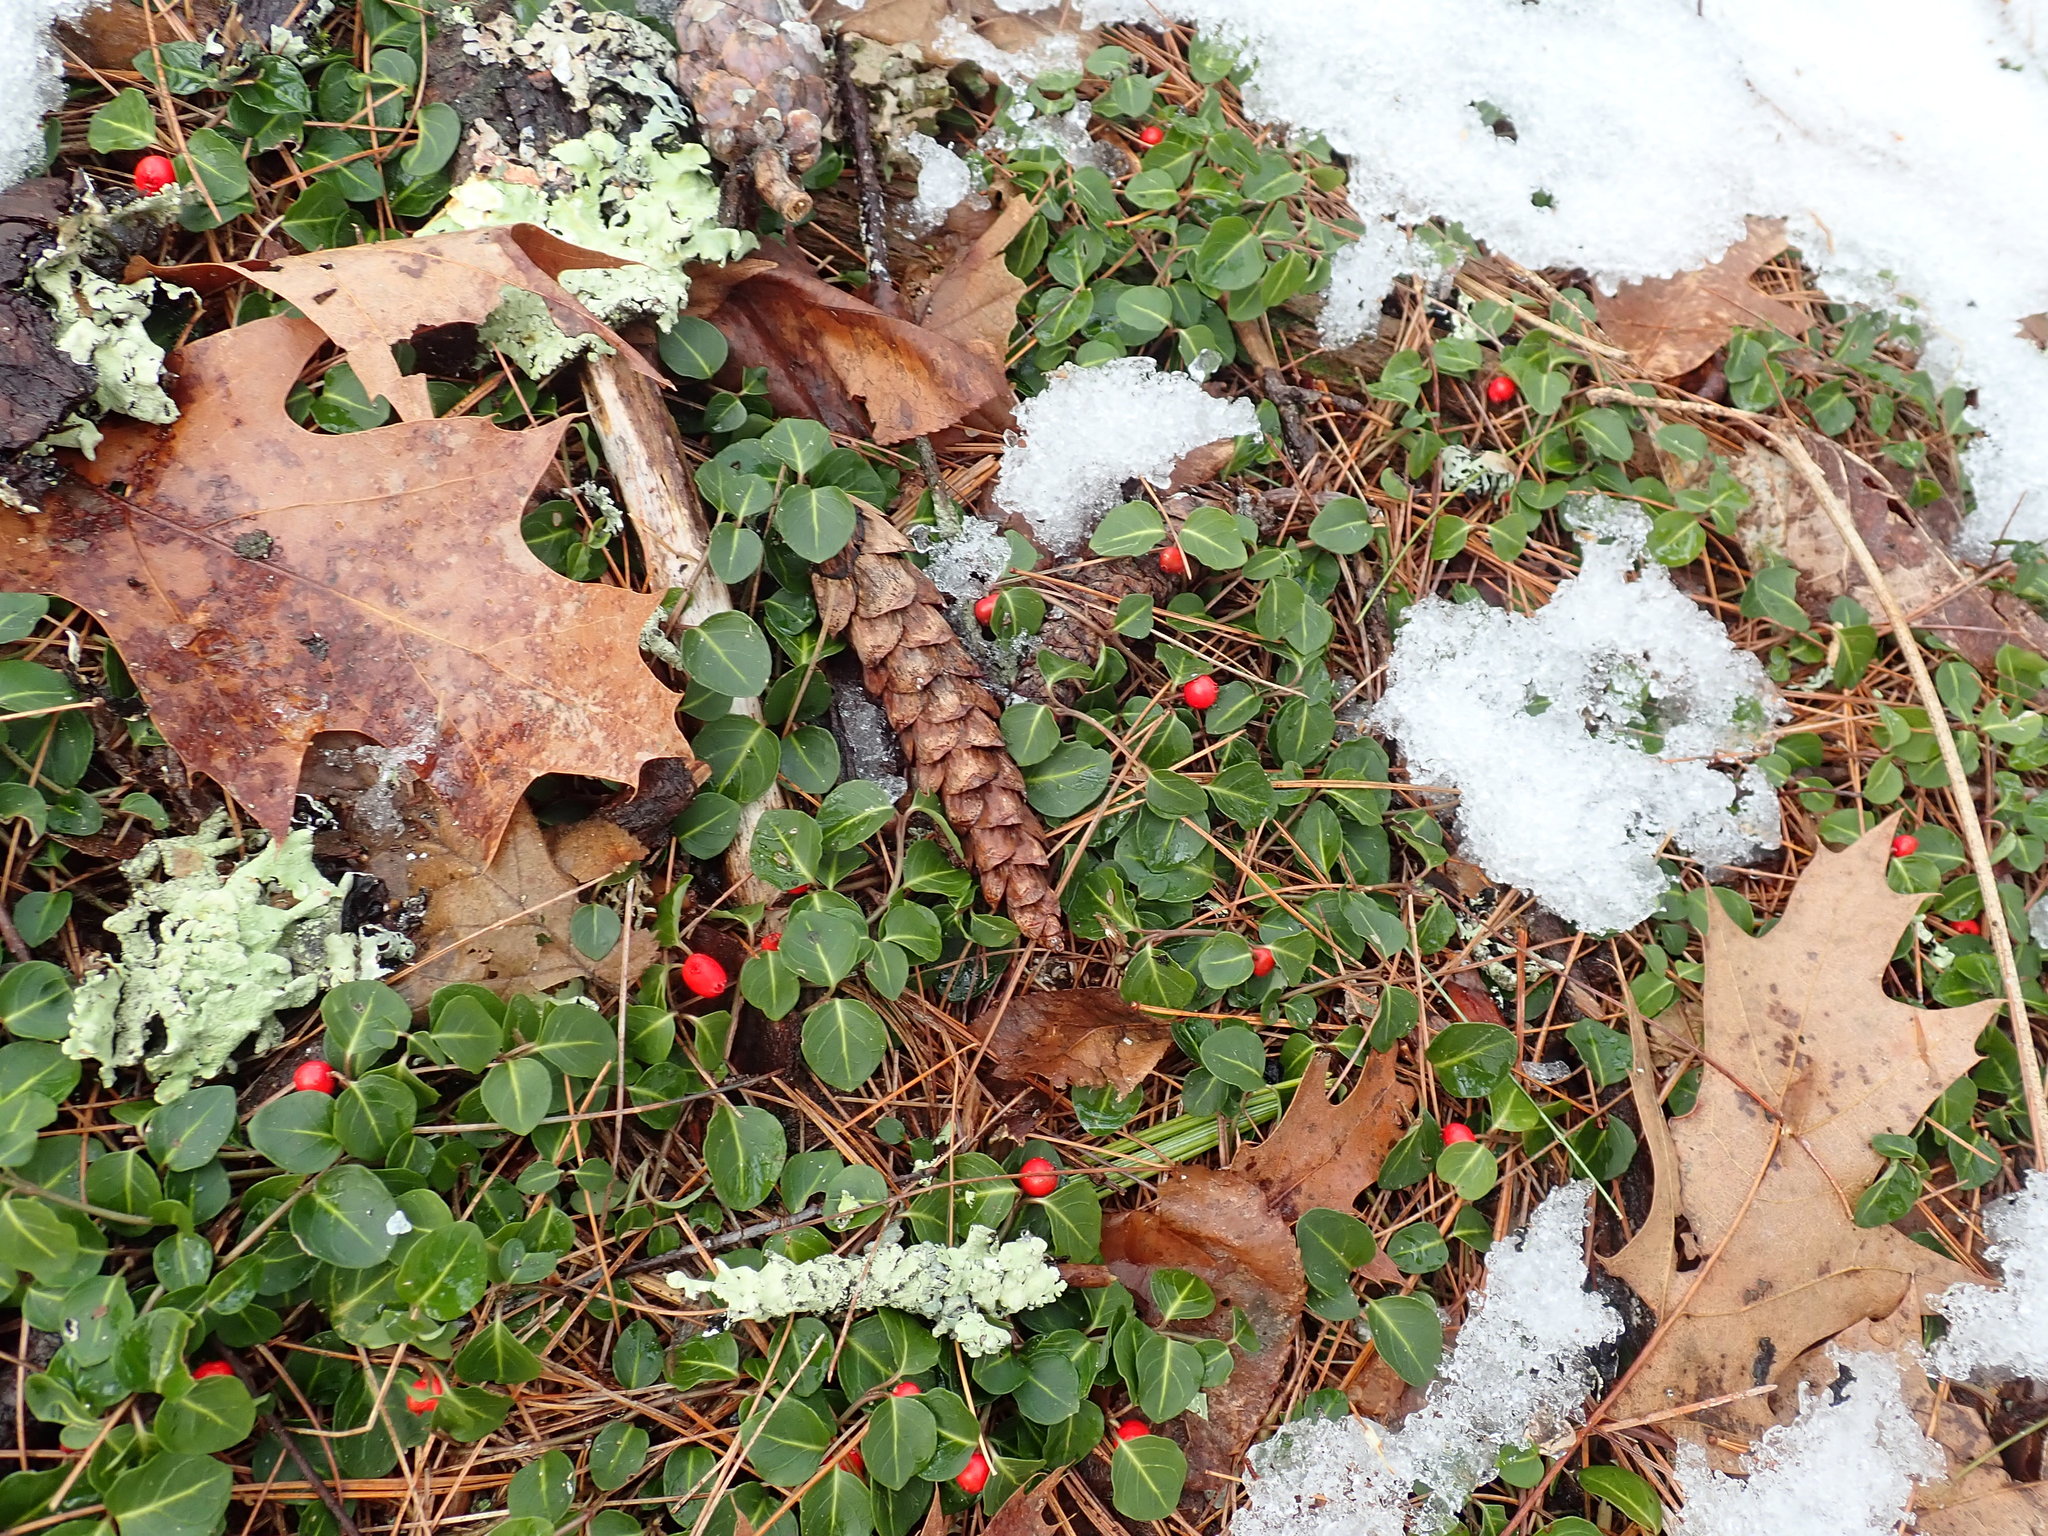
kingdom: Plantae
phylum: Tracheophyta
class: Magnoliopsida
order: Gentianales
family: Rubiaceae
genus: Mitchella
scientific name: Mitchella repens
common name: Partridge-berry
